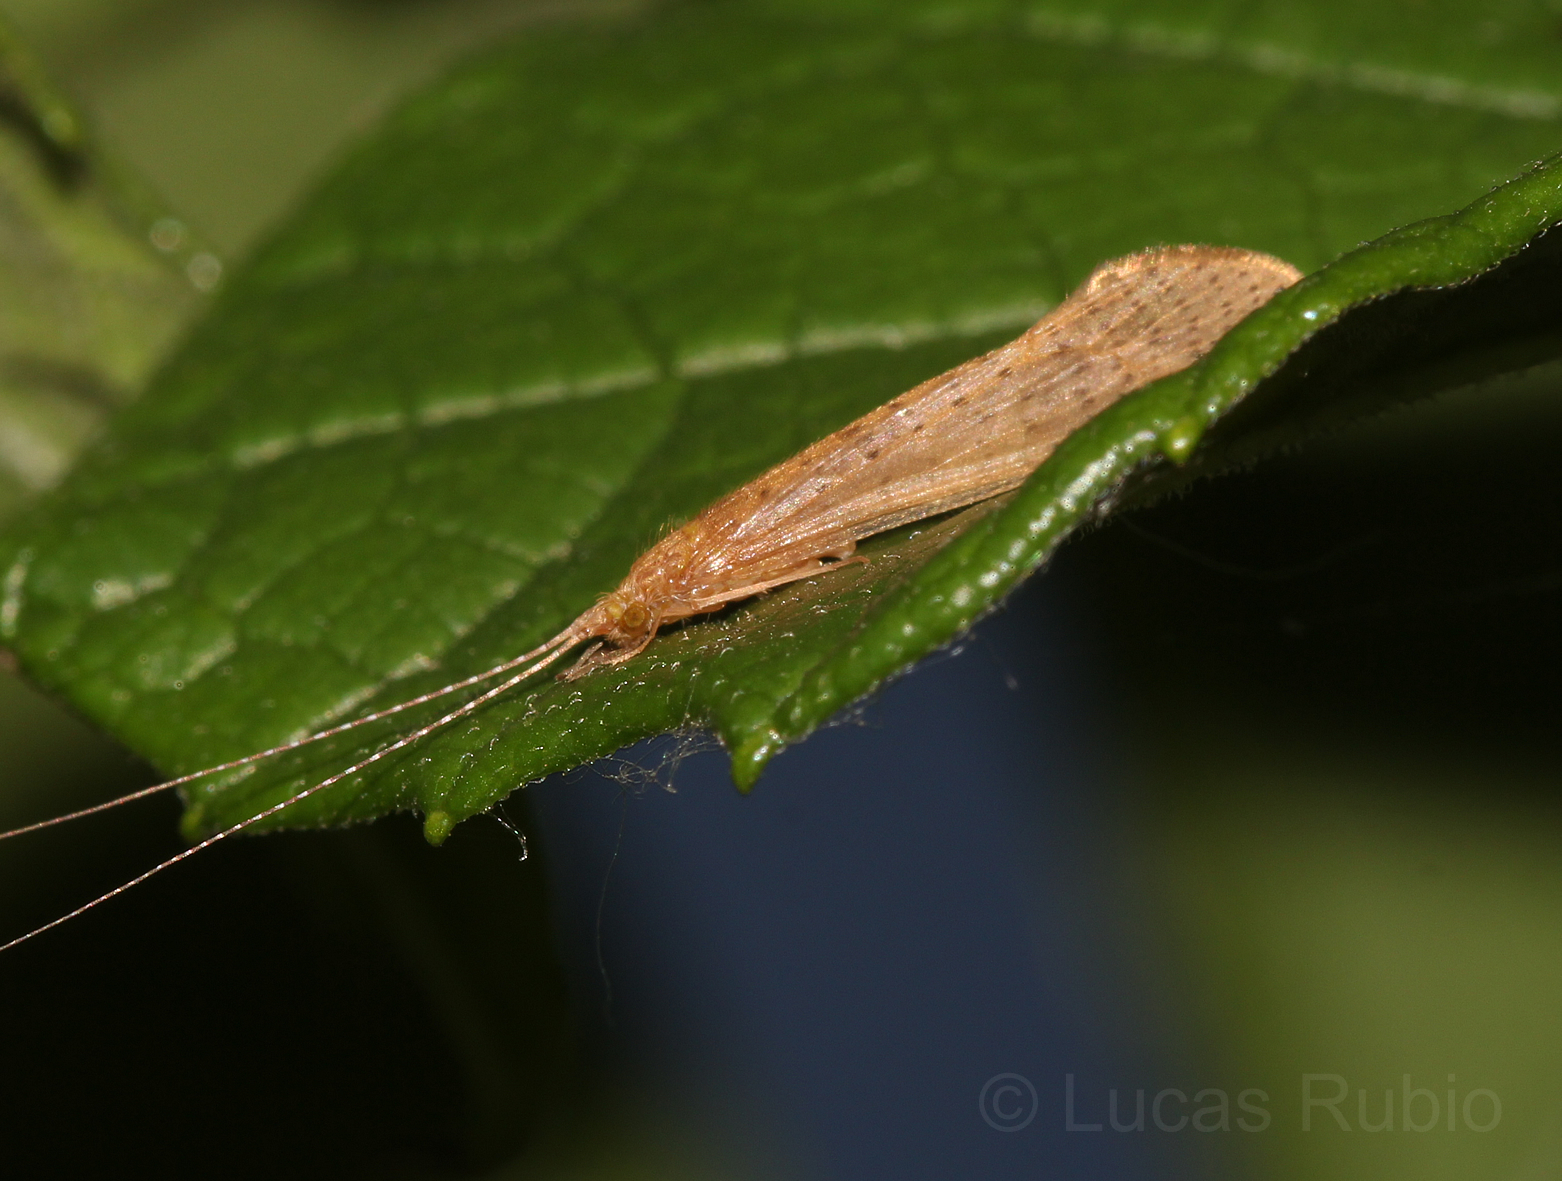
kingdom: Animalia
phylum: Arthropoda
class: Insecta
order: Trichoptera
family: Leptoceridae
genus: Nectopsyche
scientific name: Nectopsyche muhni
